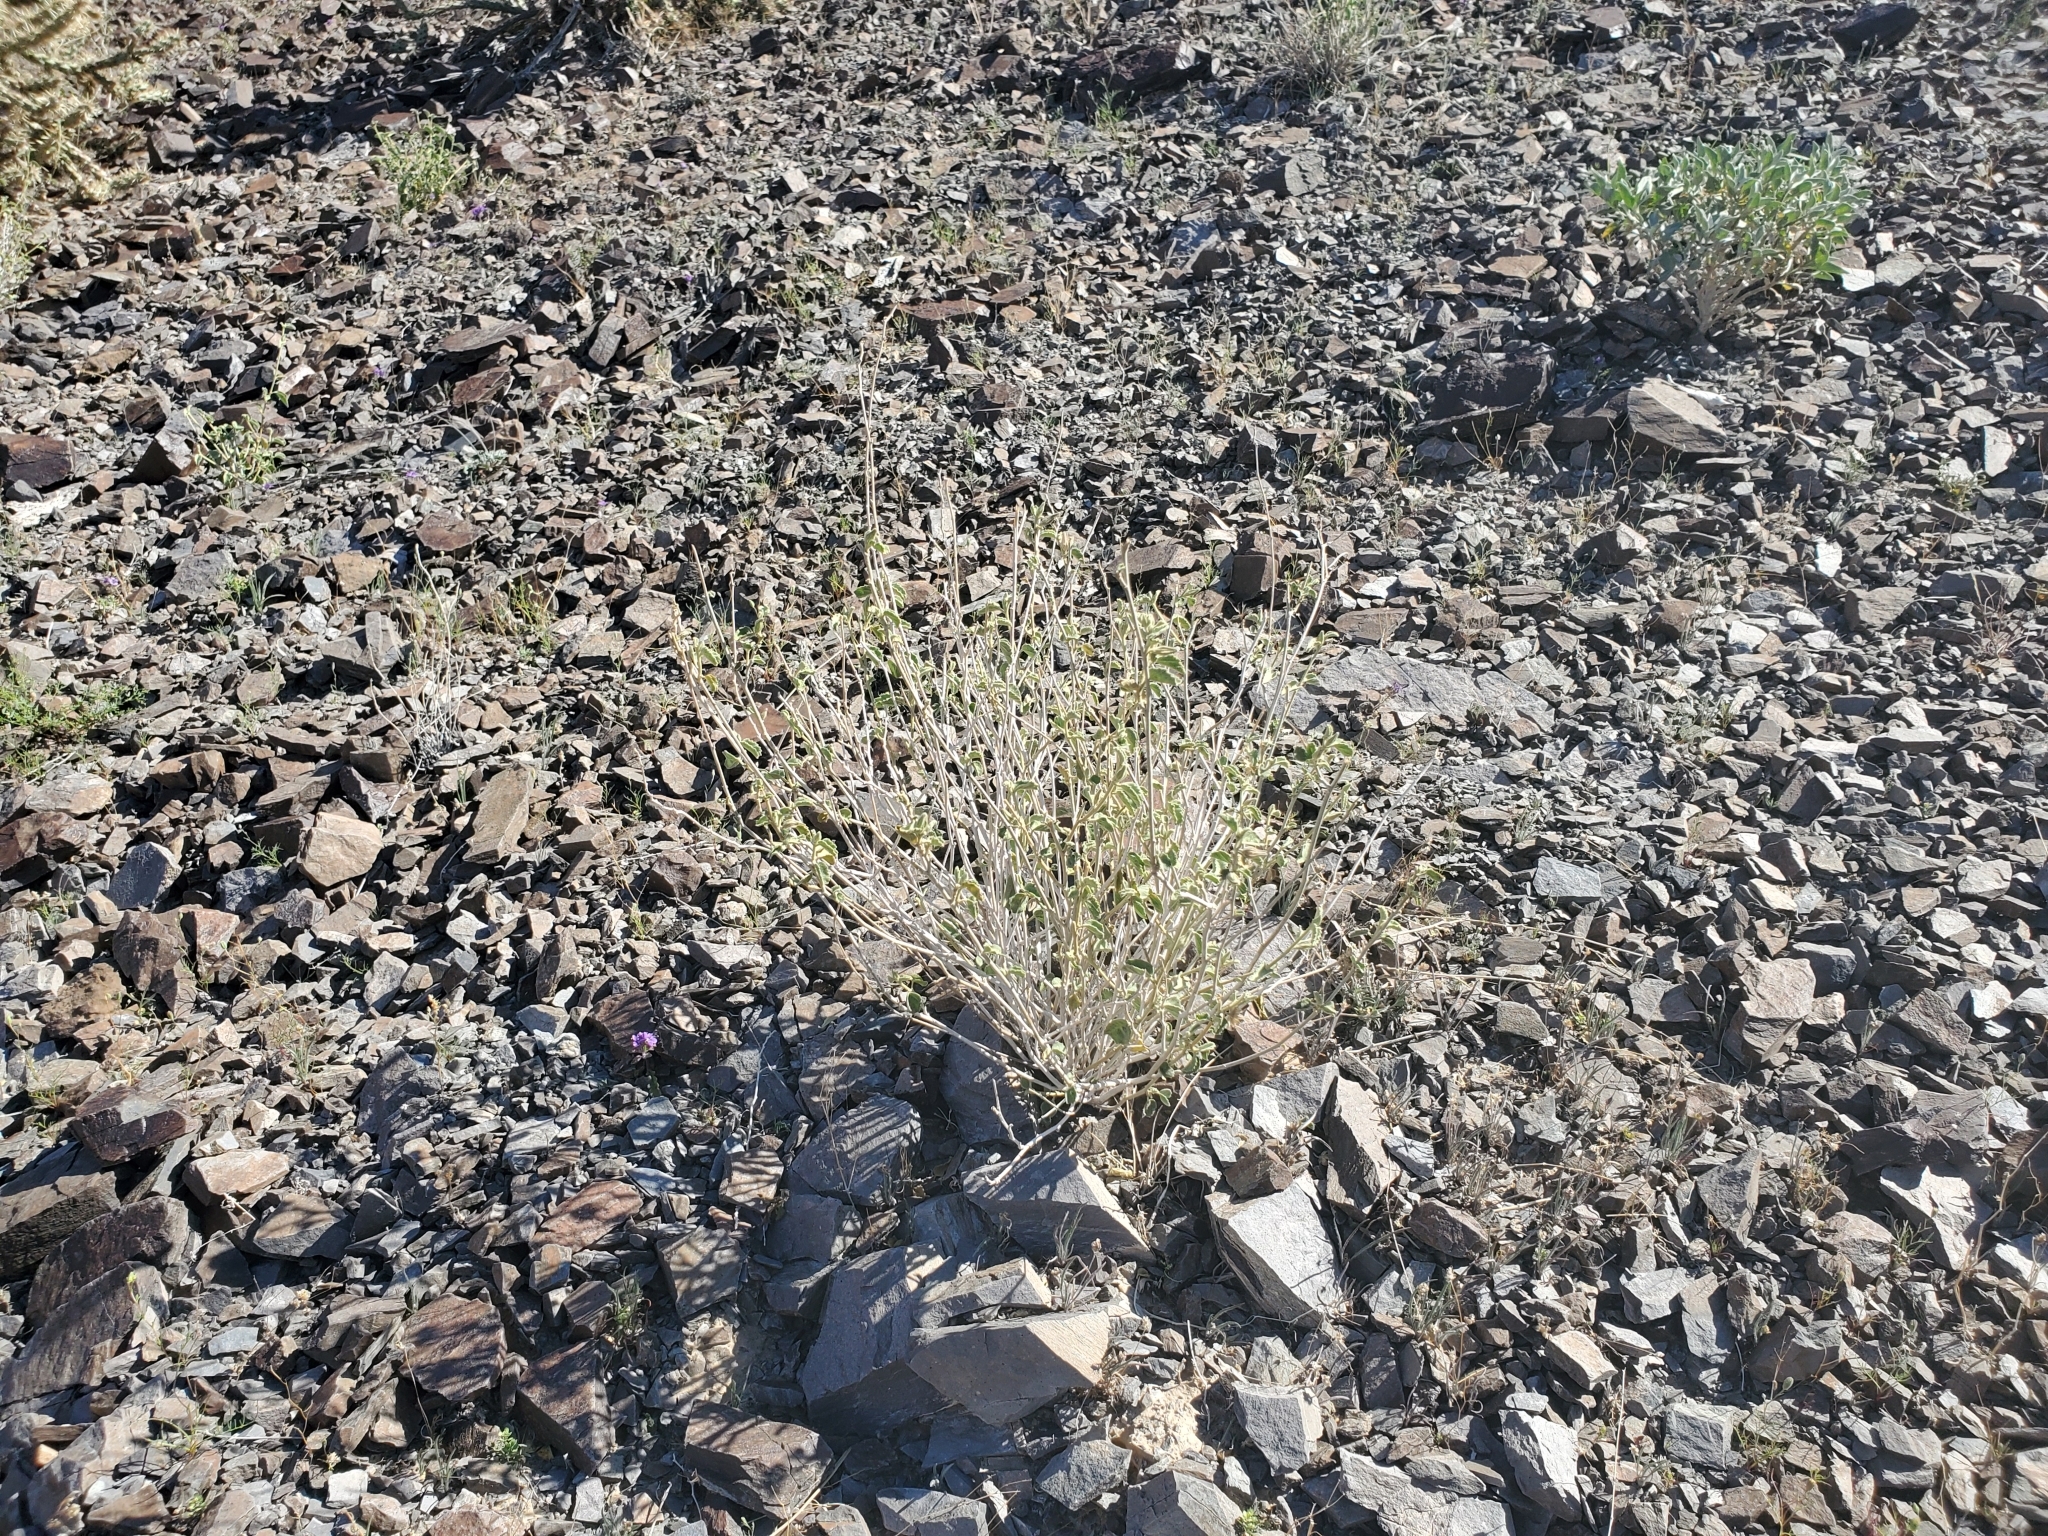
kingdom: Plantae
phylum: Tracheophyta
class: Magnoliopsida
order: Malvales
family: Malvaceae
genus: Hibiscus
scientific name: Hibiscus denudatus
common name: Paleface
